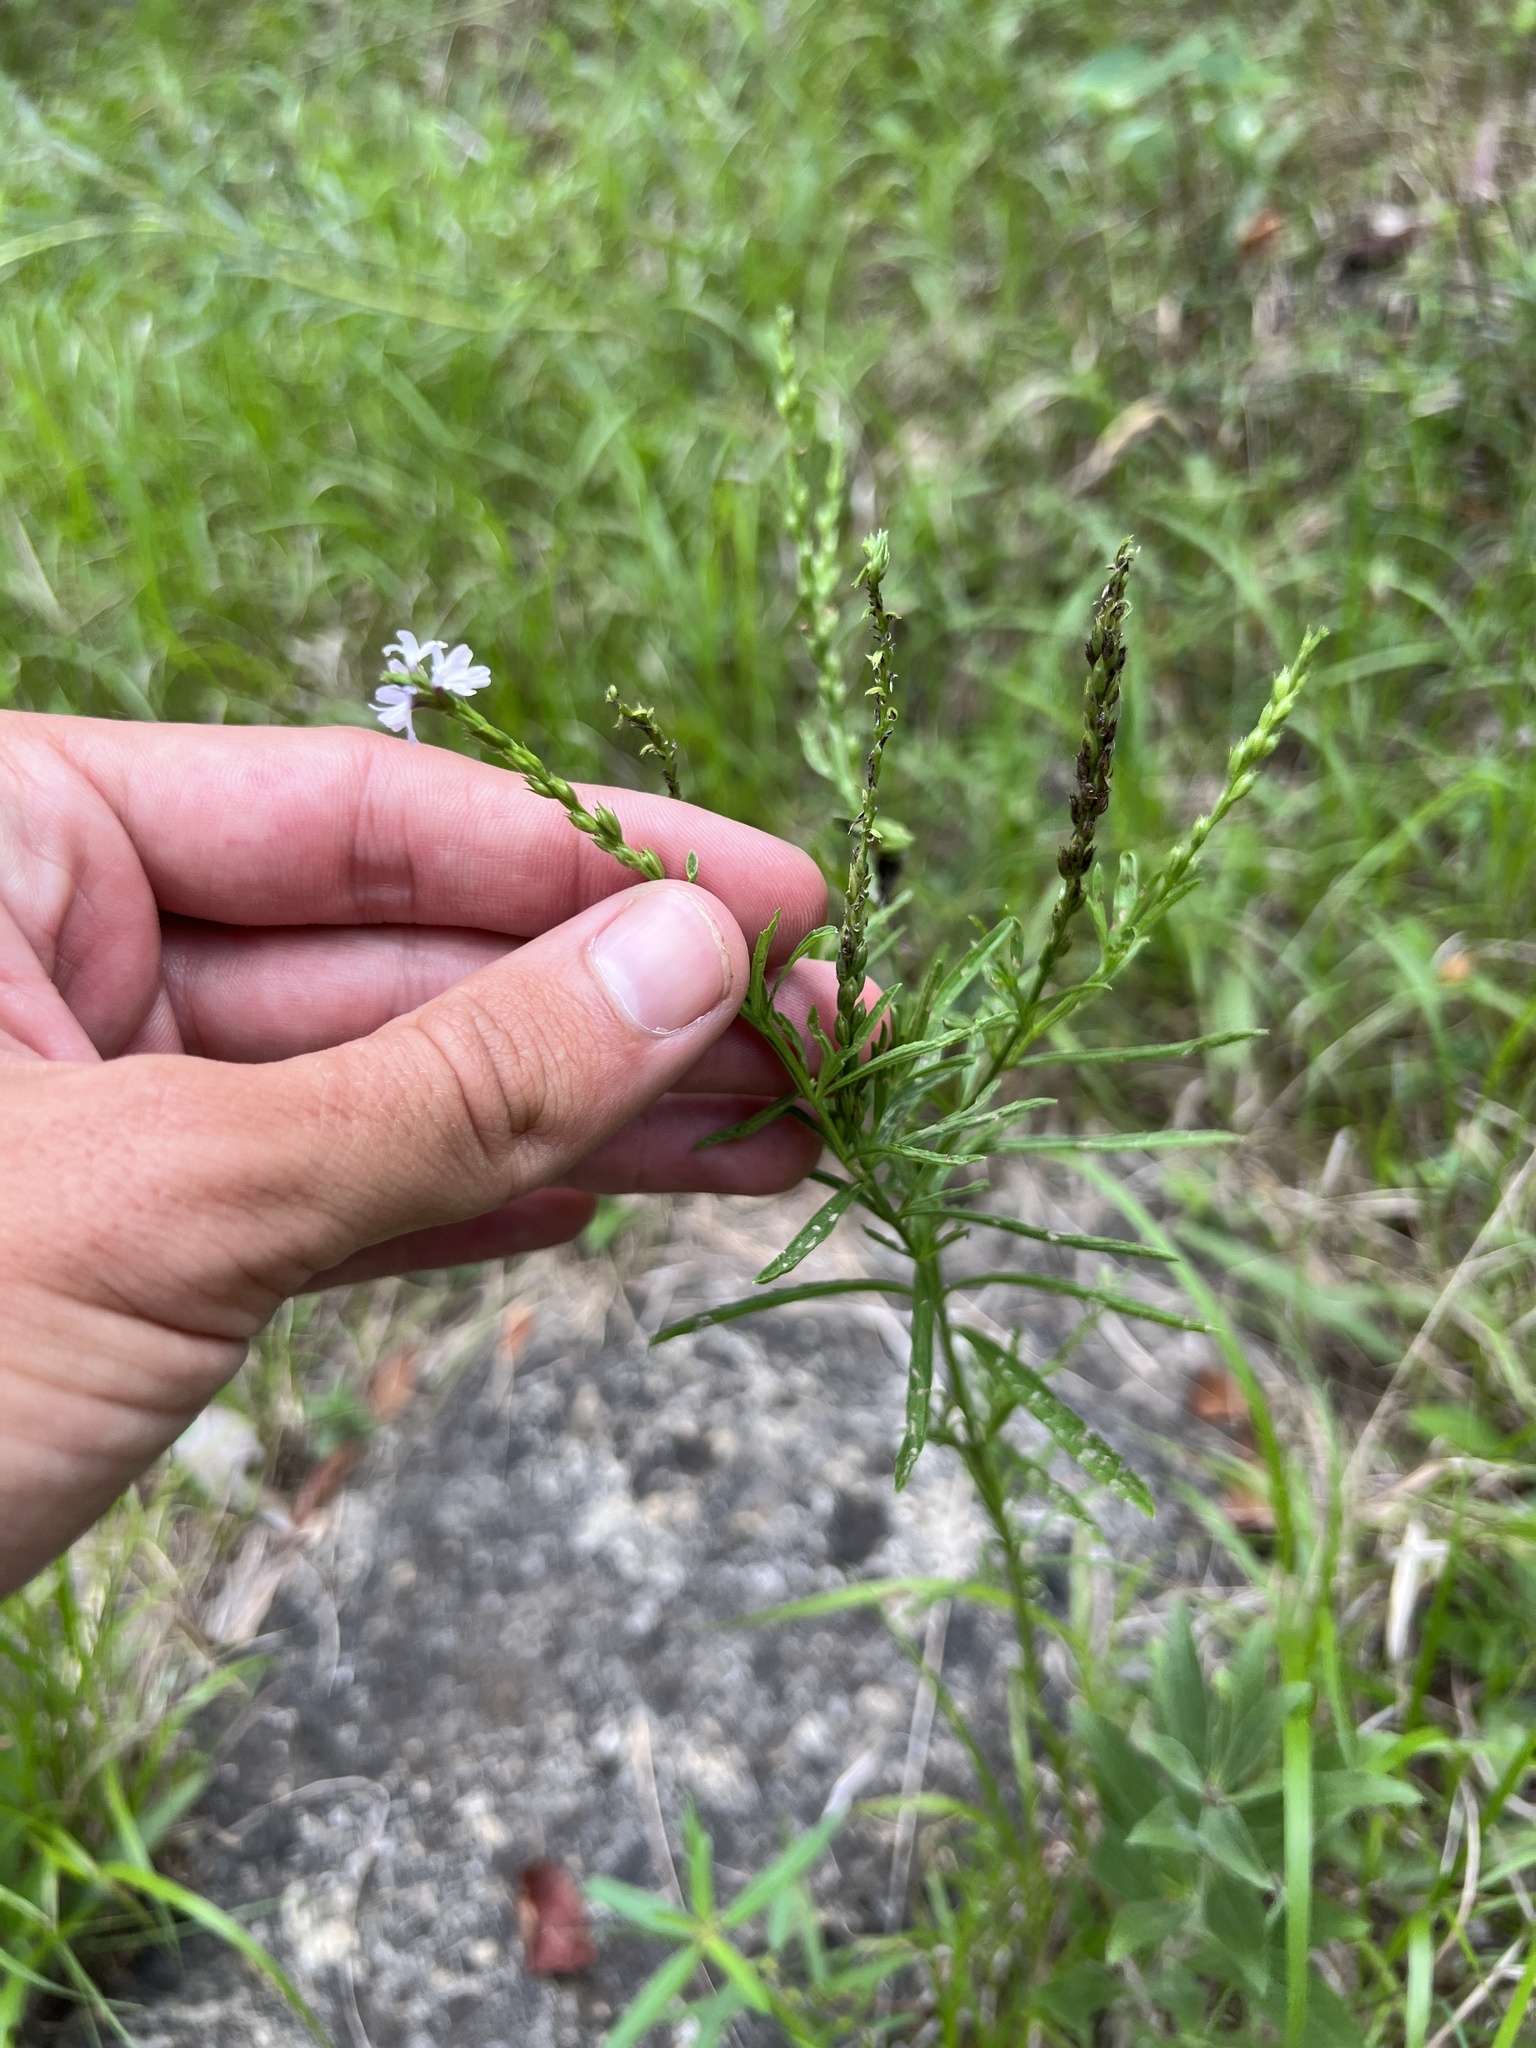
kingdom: Plantae
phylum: Tracheophyta
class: Magnoliopsida
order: Lamiales
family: Verbenaceae
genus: Verbena
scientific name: Verbena simplex
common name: Narrow-leaf vervain
